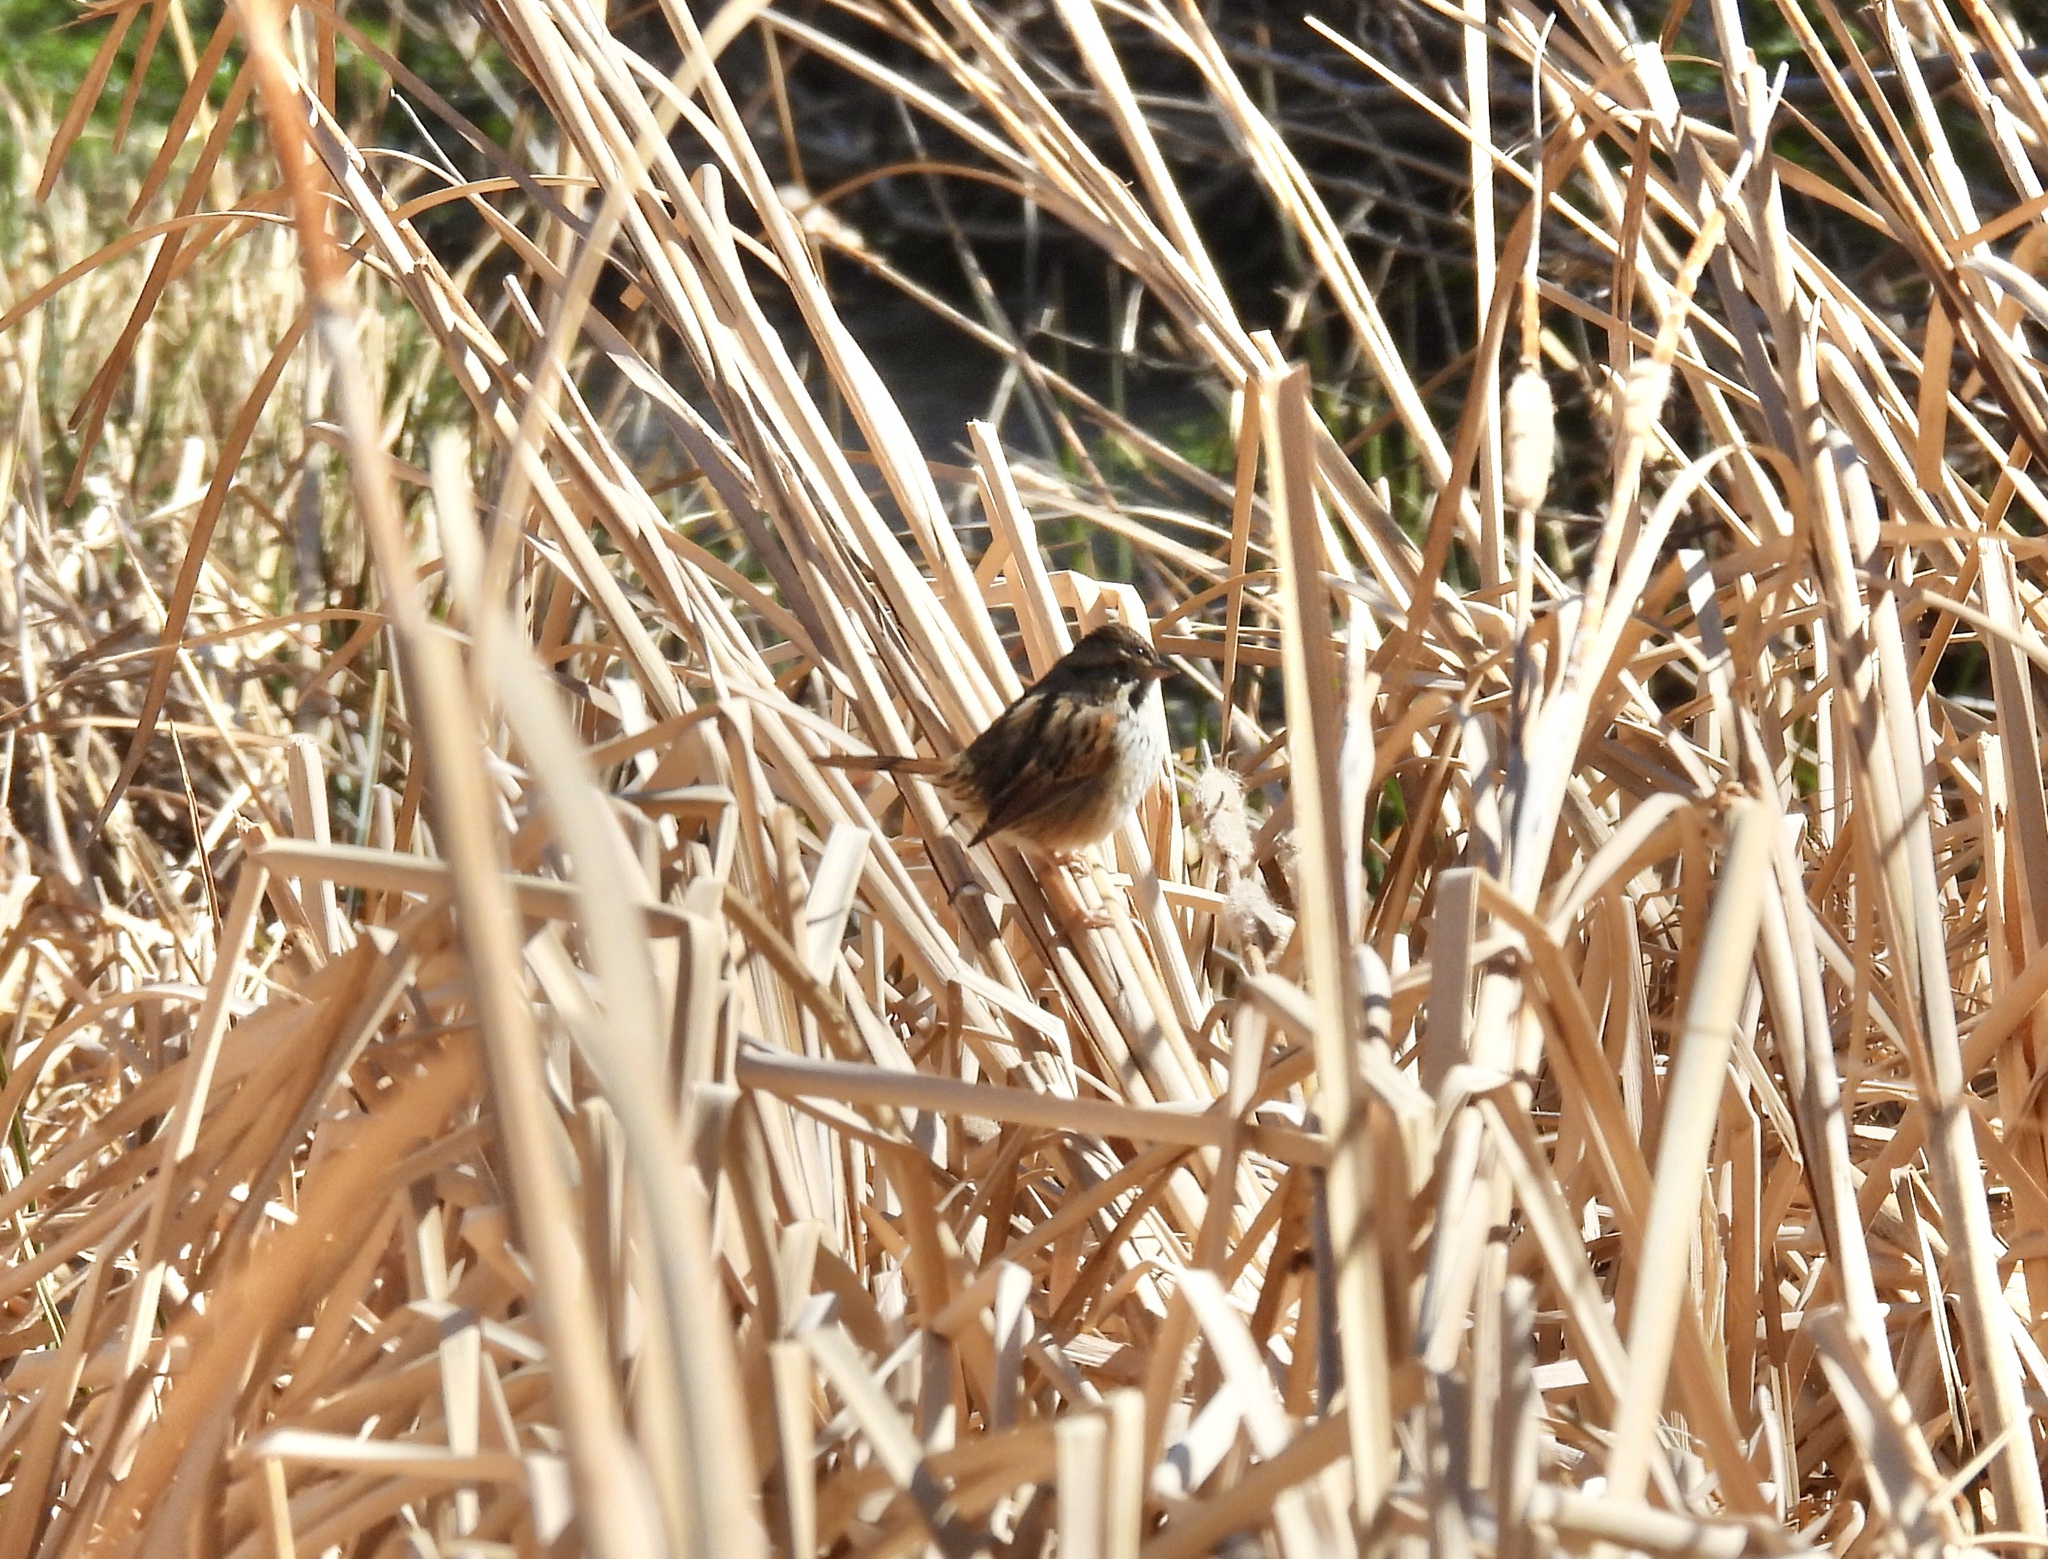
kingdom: Animalia
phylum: Chordata
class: Aves
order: Passeriformes
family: Passerellidae
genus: Melospiza
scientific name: Melospiza georgiana
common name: Swamp sparrow
